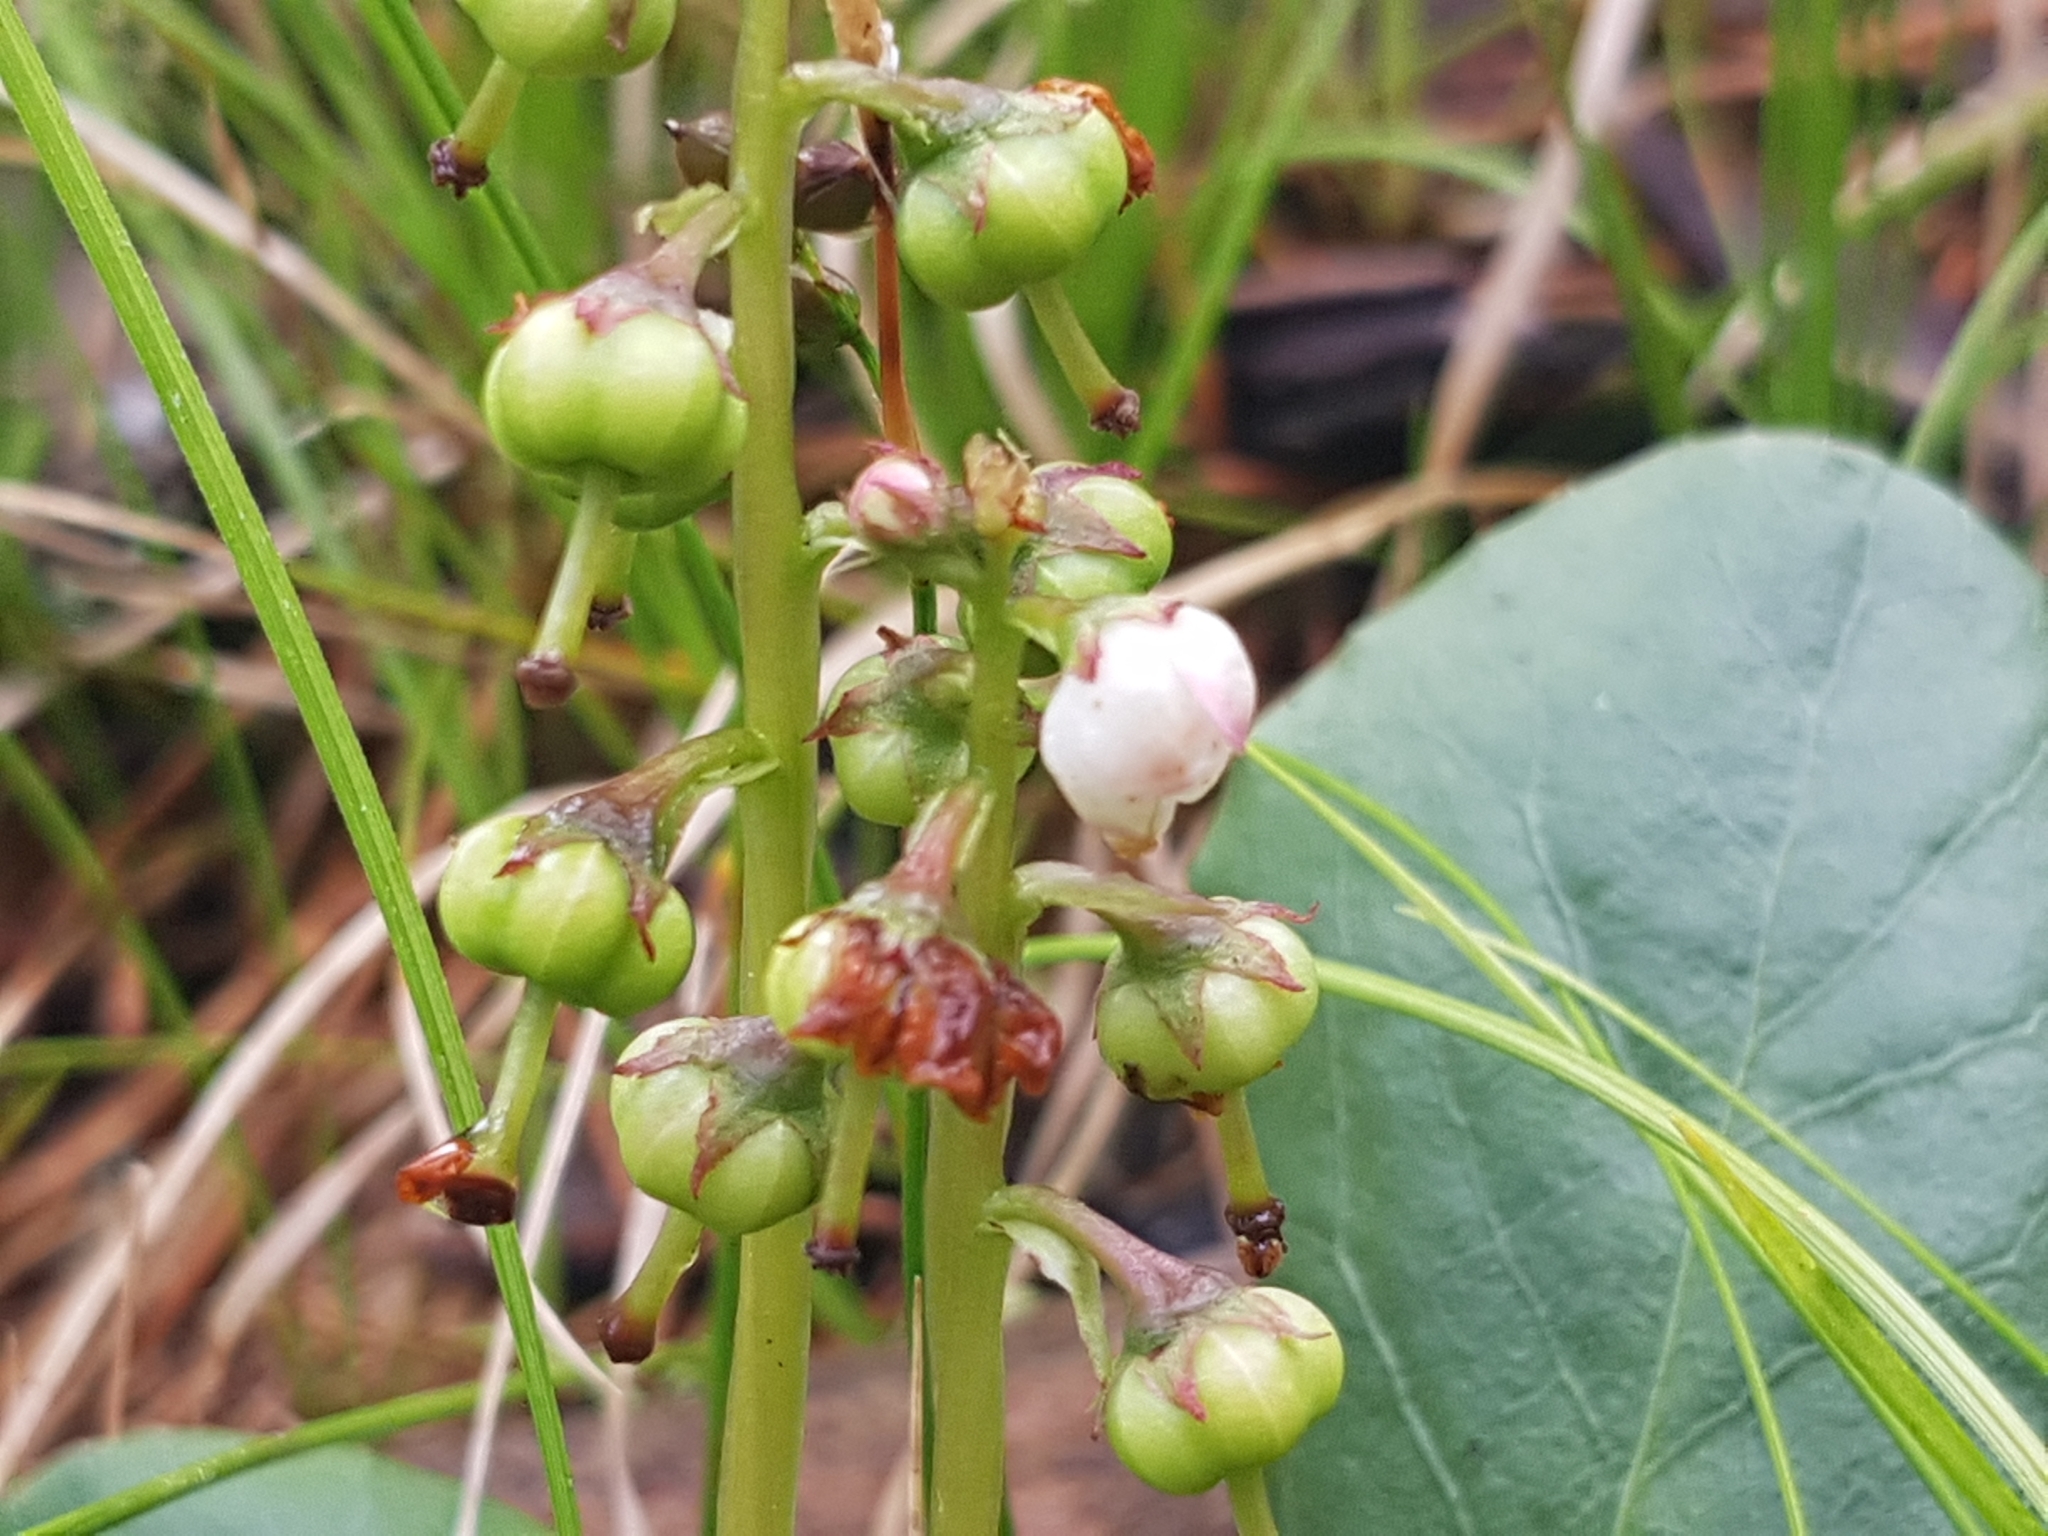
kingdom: Plantae
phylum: Tracheophyta
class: Magnoliopsida
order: Ericales
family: Ericaceae
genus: Pyrola
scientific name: Pyrola media
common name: Intermediate wintergreen
